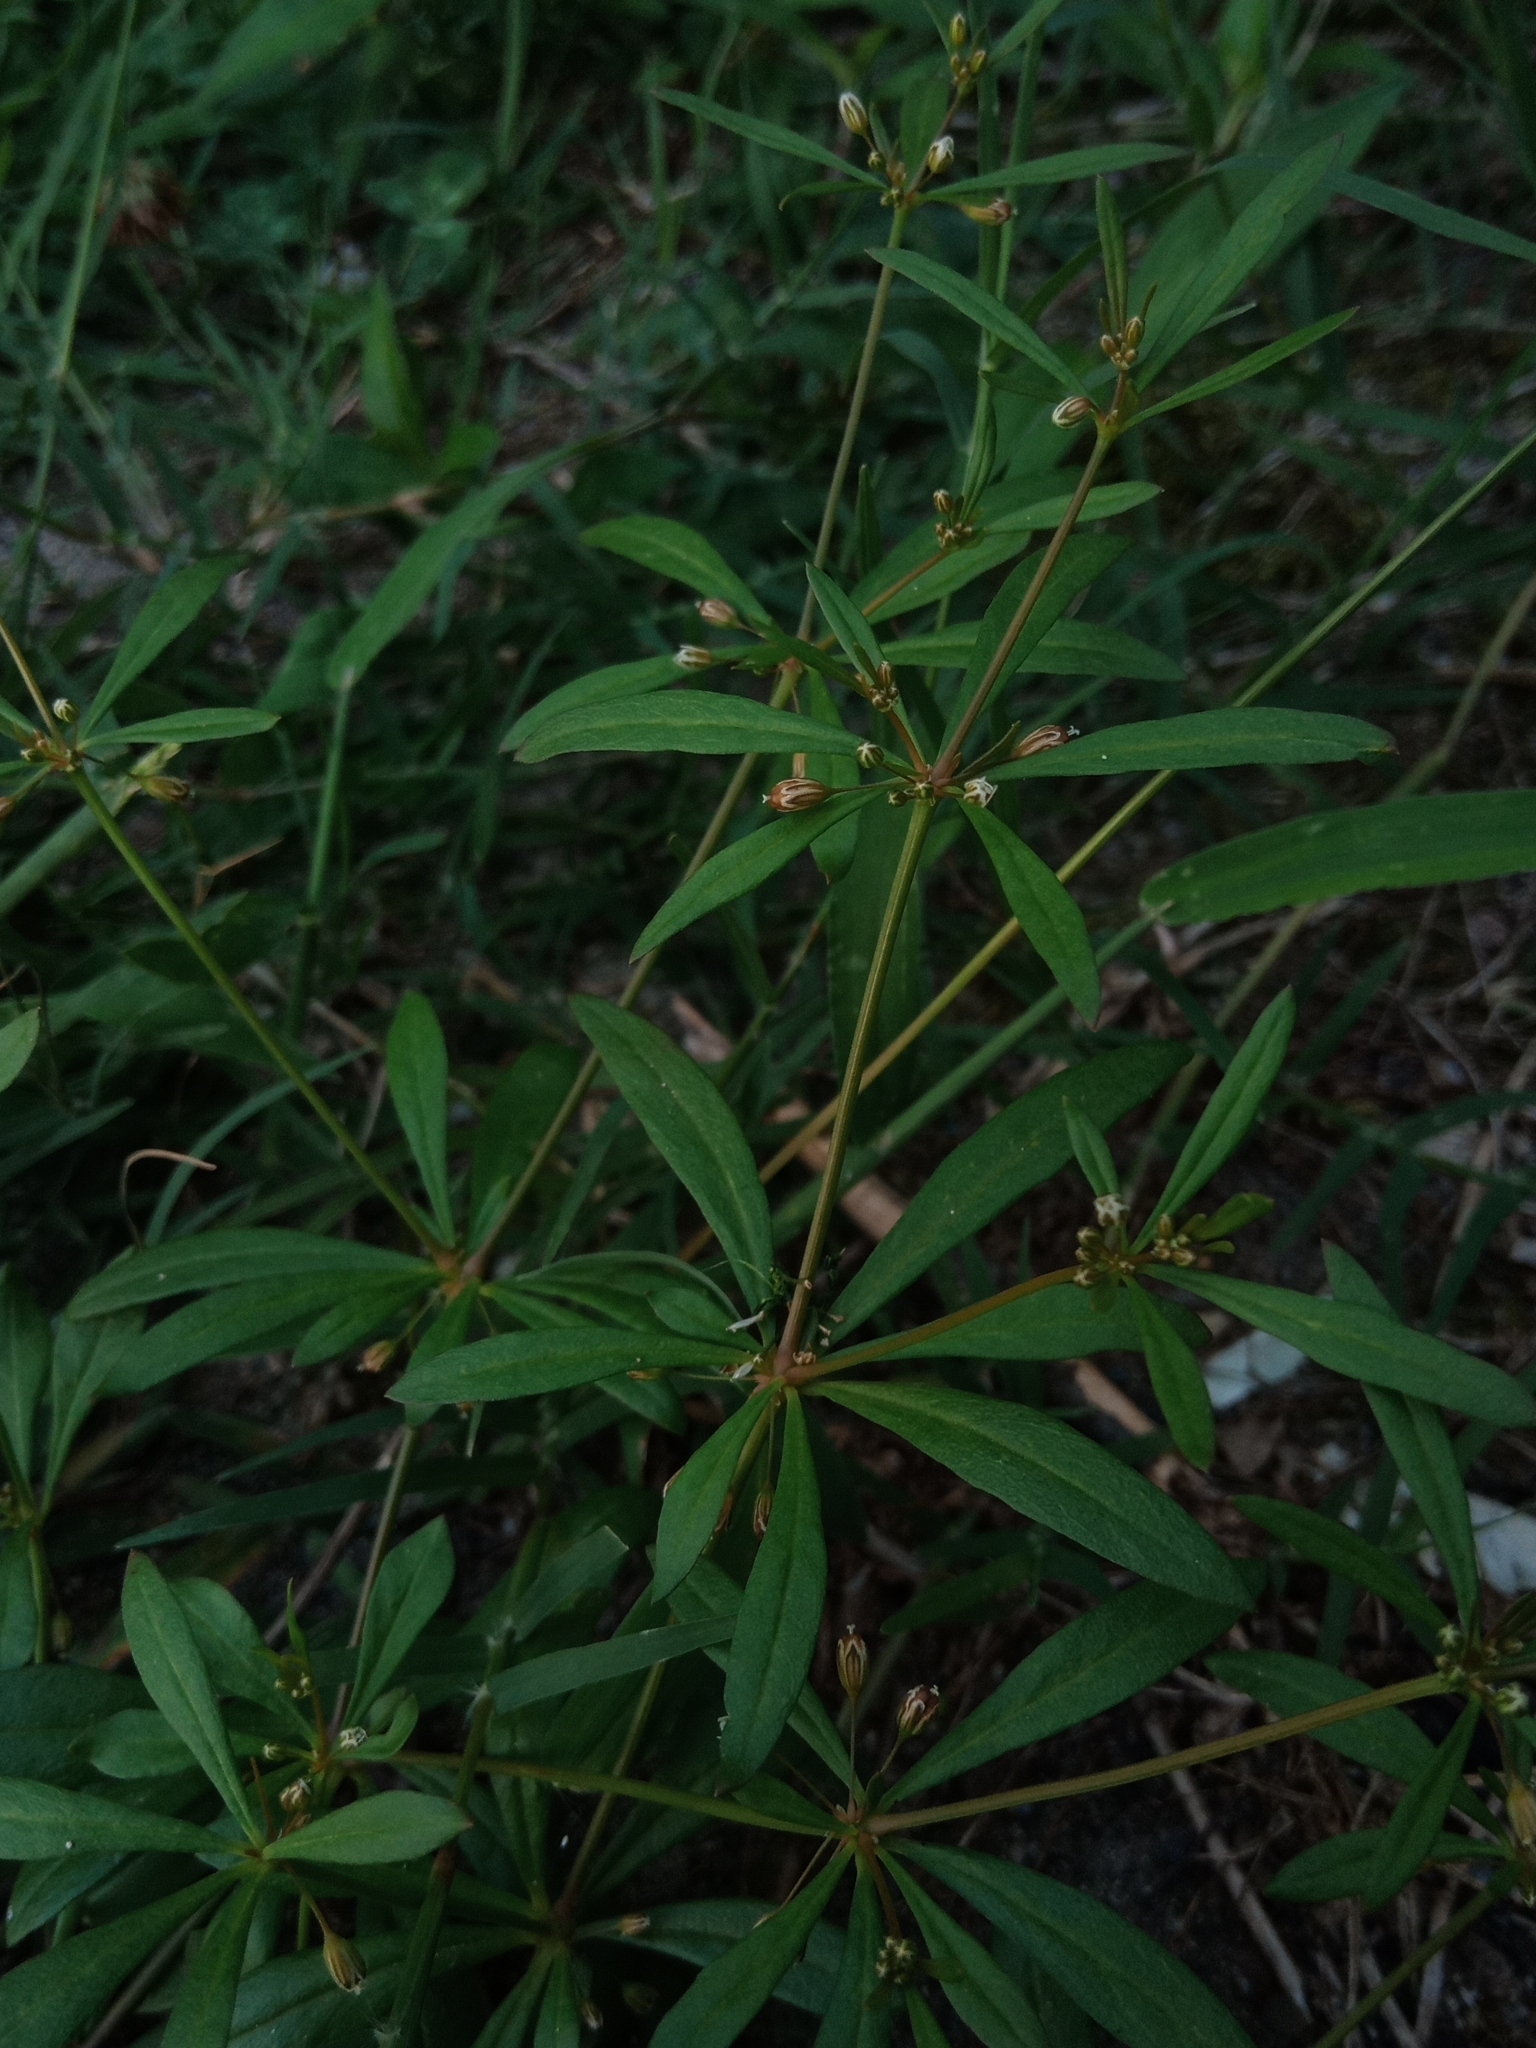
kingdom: Plantae
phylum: Tracheophyta
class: Magnoliopsida
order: Caryophyllales
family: Molluginaceae
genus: Mollugo
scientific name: Mollugo verticillata
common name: Green carpetweed
